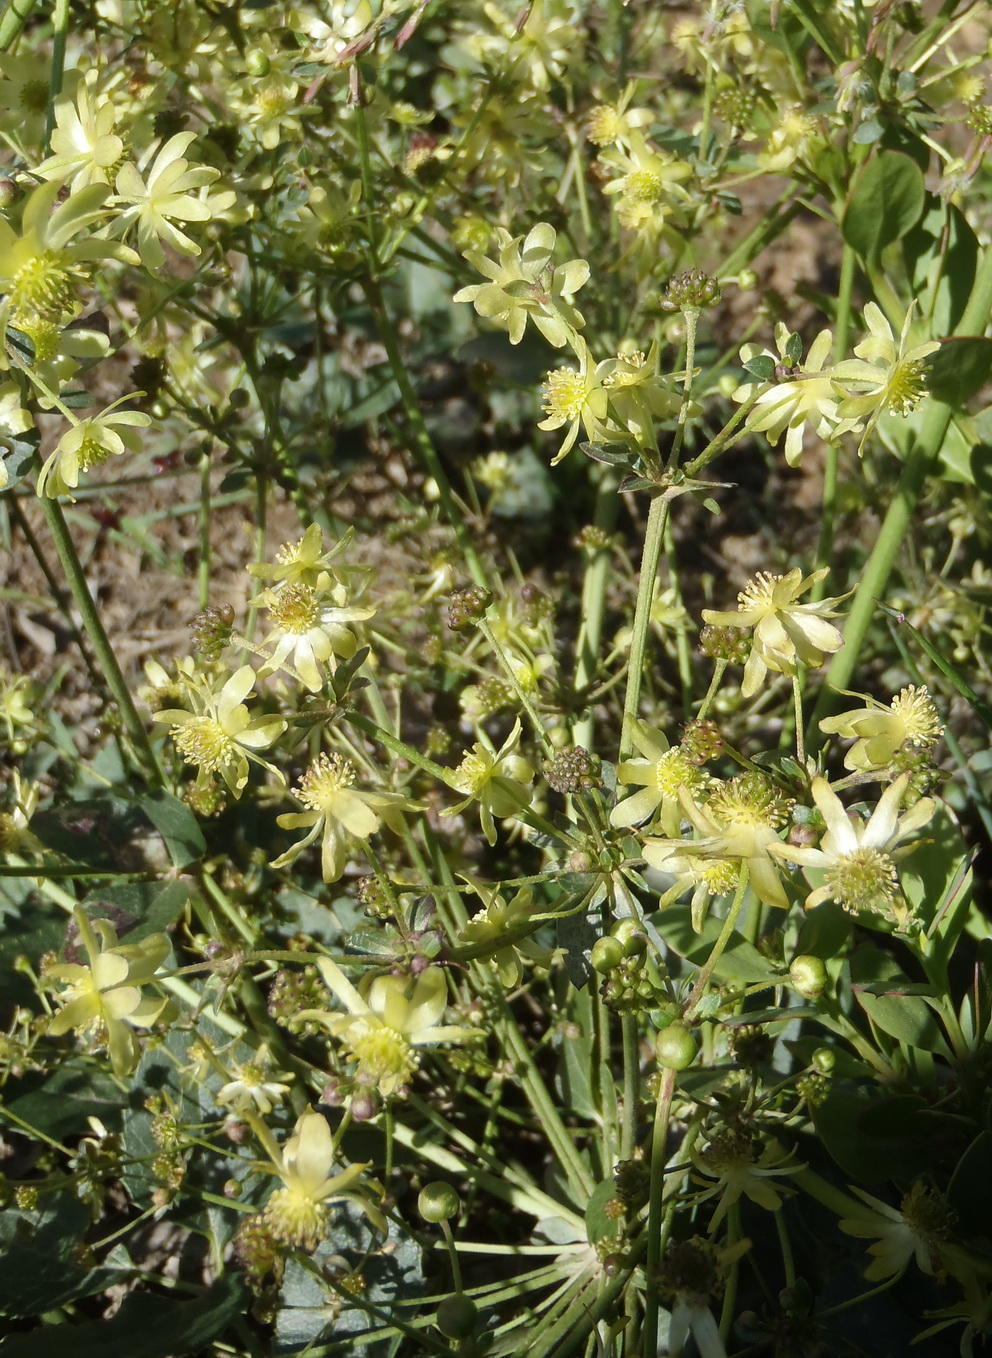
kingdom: Plantae
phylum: Tracheophyta
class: Magnoliopsida
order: Ranunculales
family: Ranunculaceae
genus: Knowltonia
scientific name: Knowltonia vesicatoria
